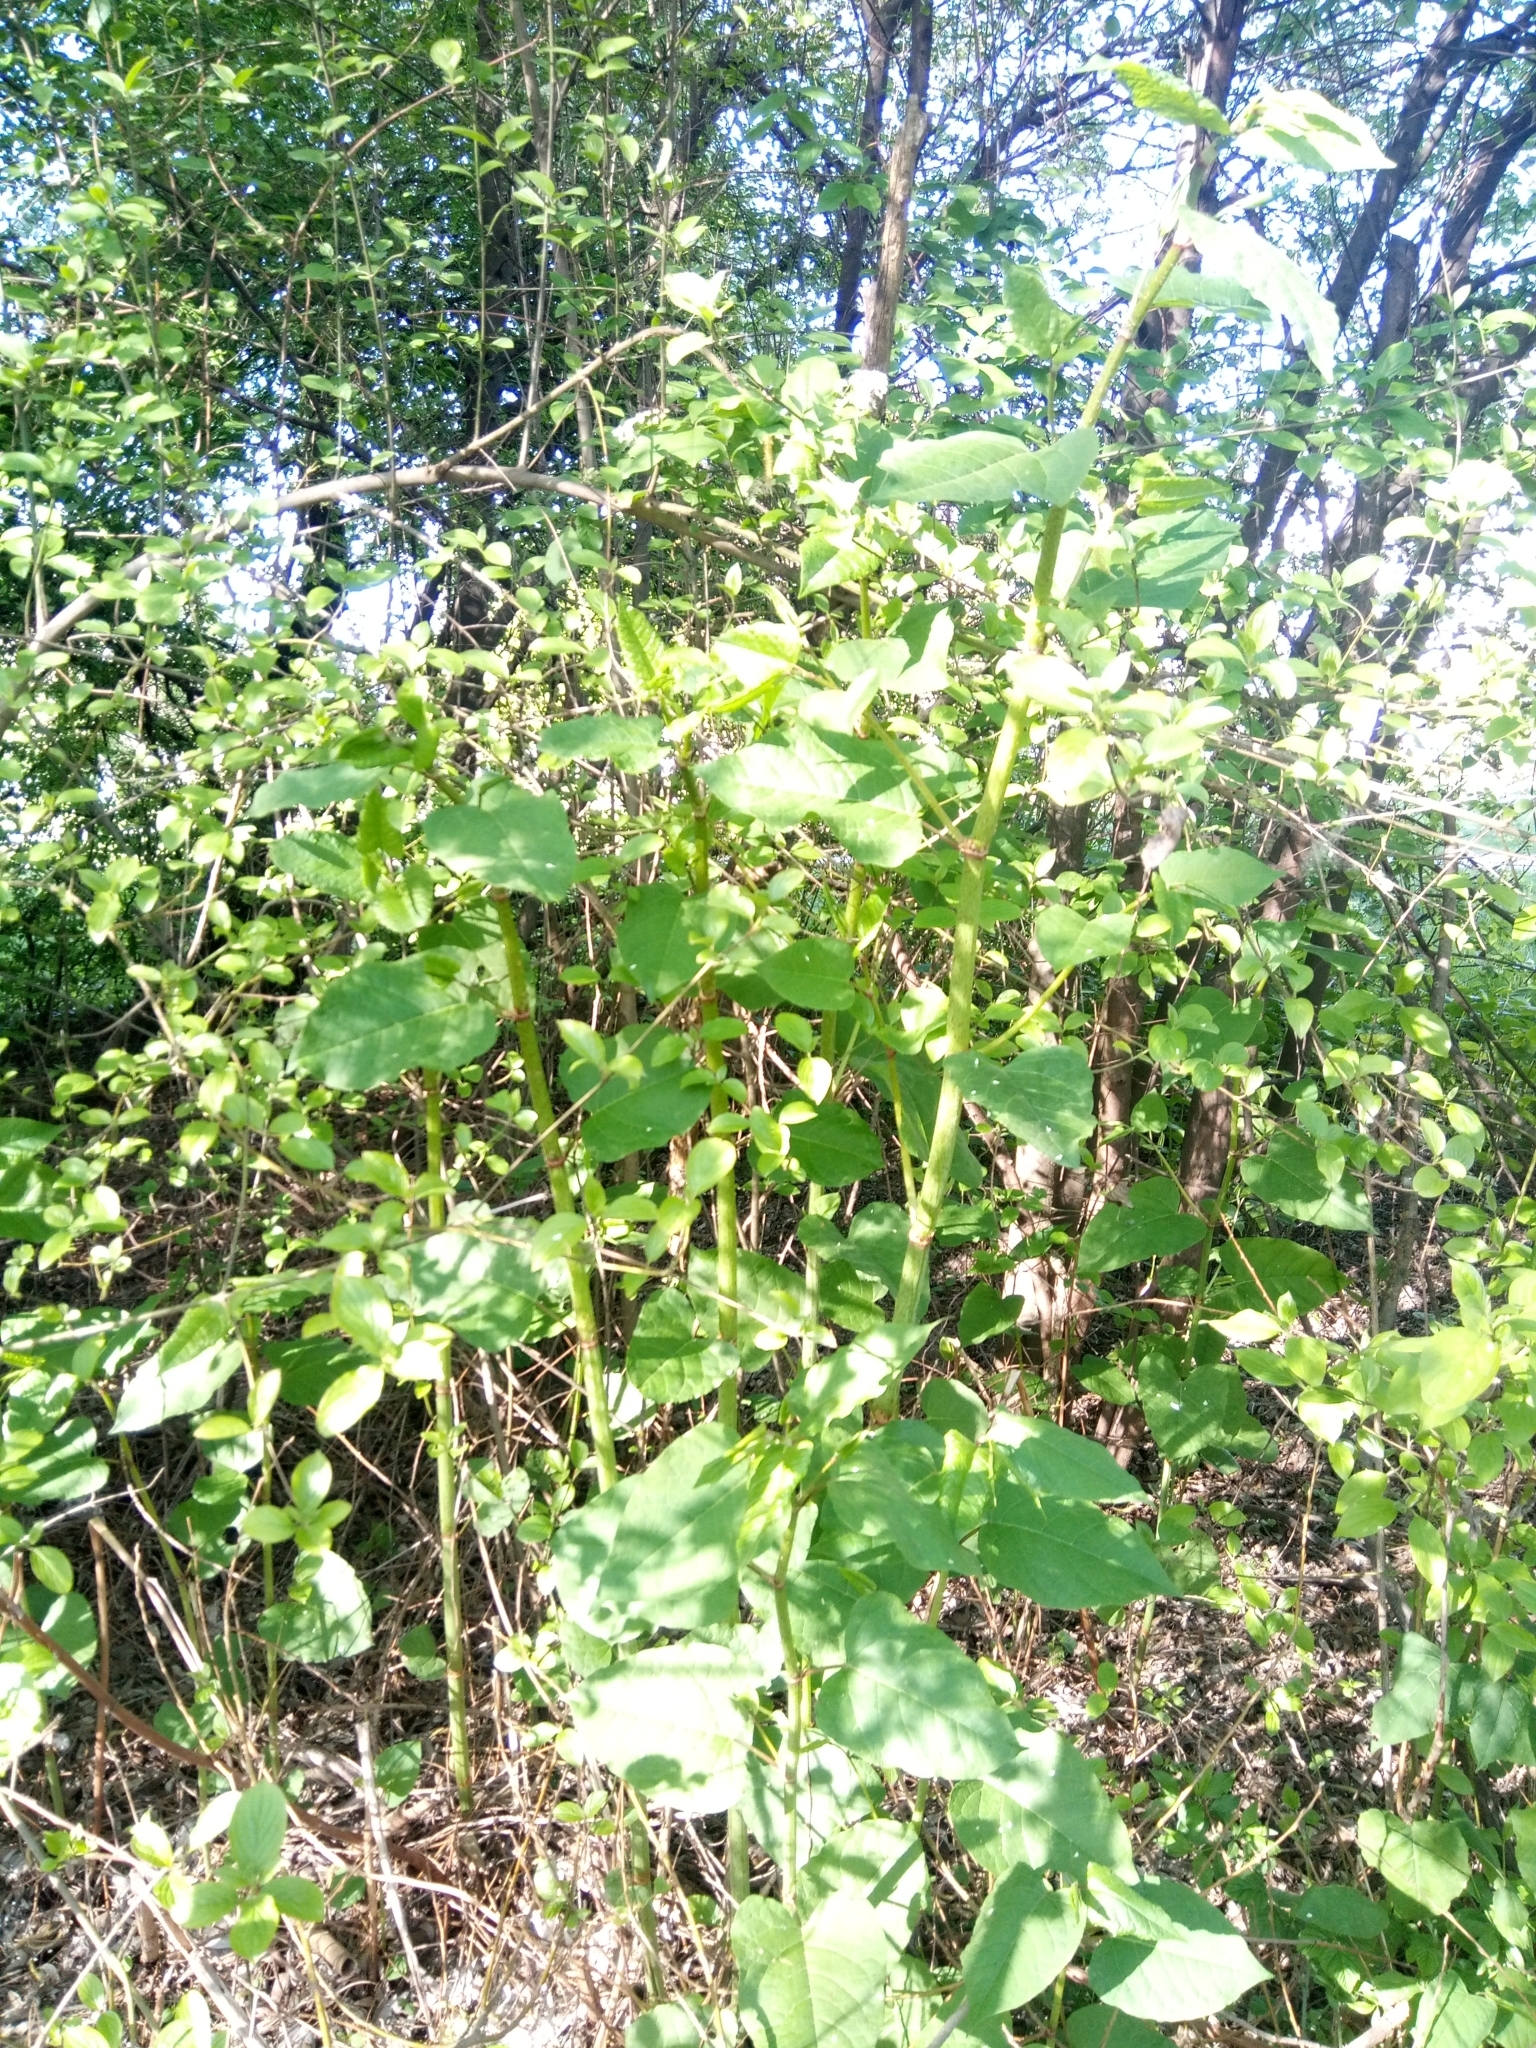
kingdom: Plantae
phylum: Tracheophyta
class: Magnoliopsida
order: Caryophyllales
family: Polygonaceae
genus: Reynoutria
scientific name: Reynoutria bohemica
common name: Bohemian knotweed
